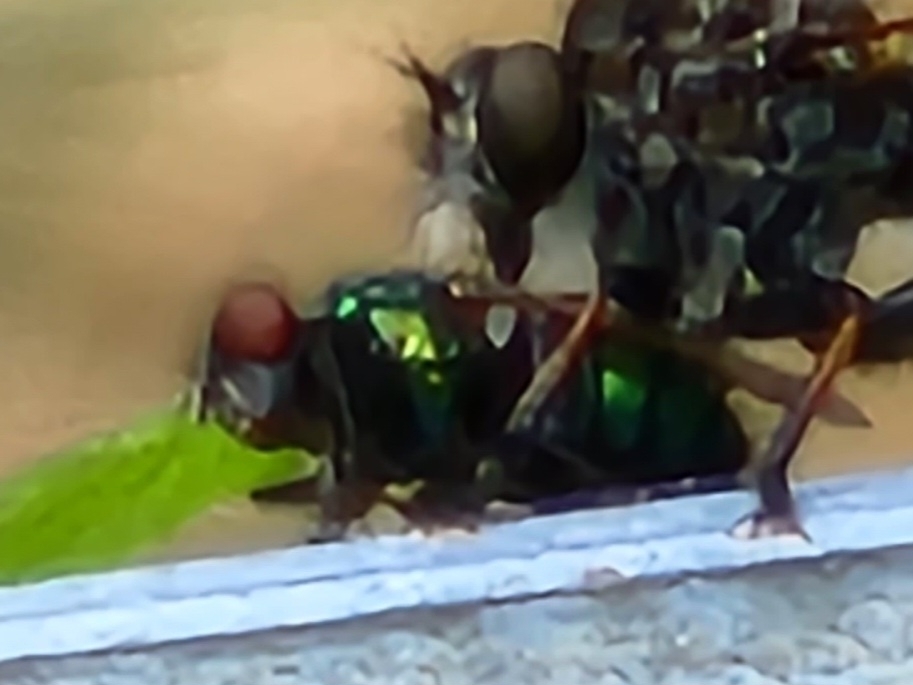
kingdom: Animalia
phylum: Arthropoda
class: Insecta
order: Diptera
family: Calliphoridae
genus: Lucilia
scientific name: Lucilia
